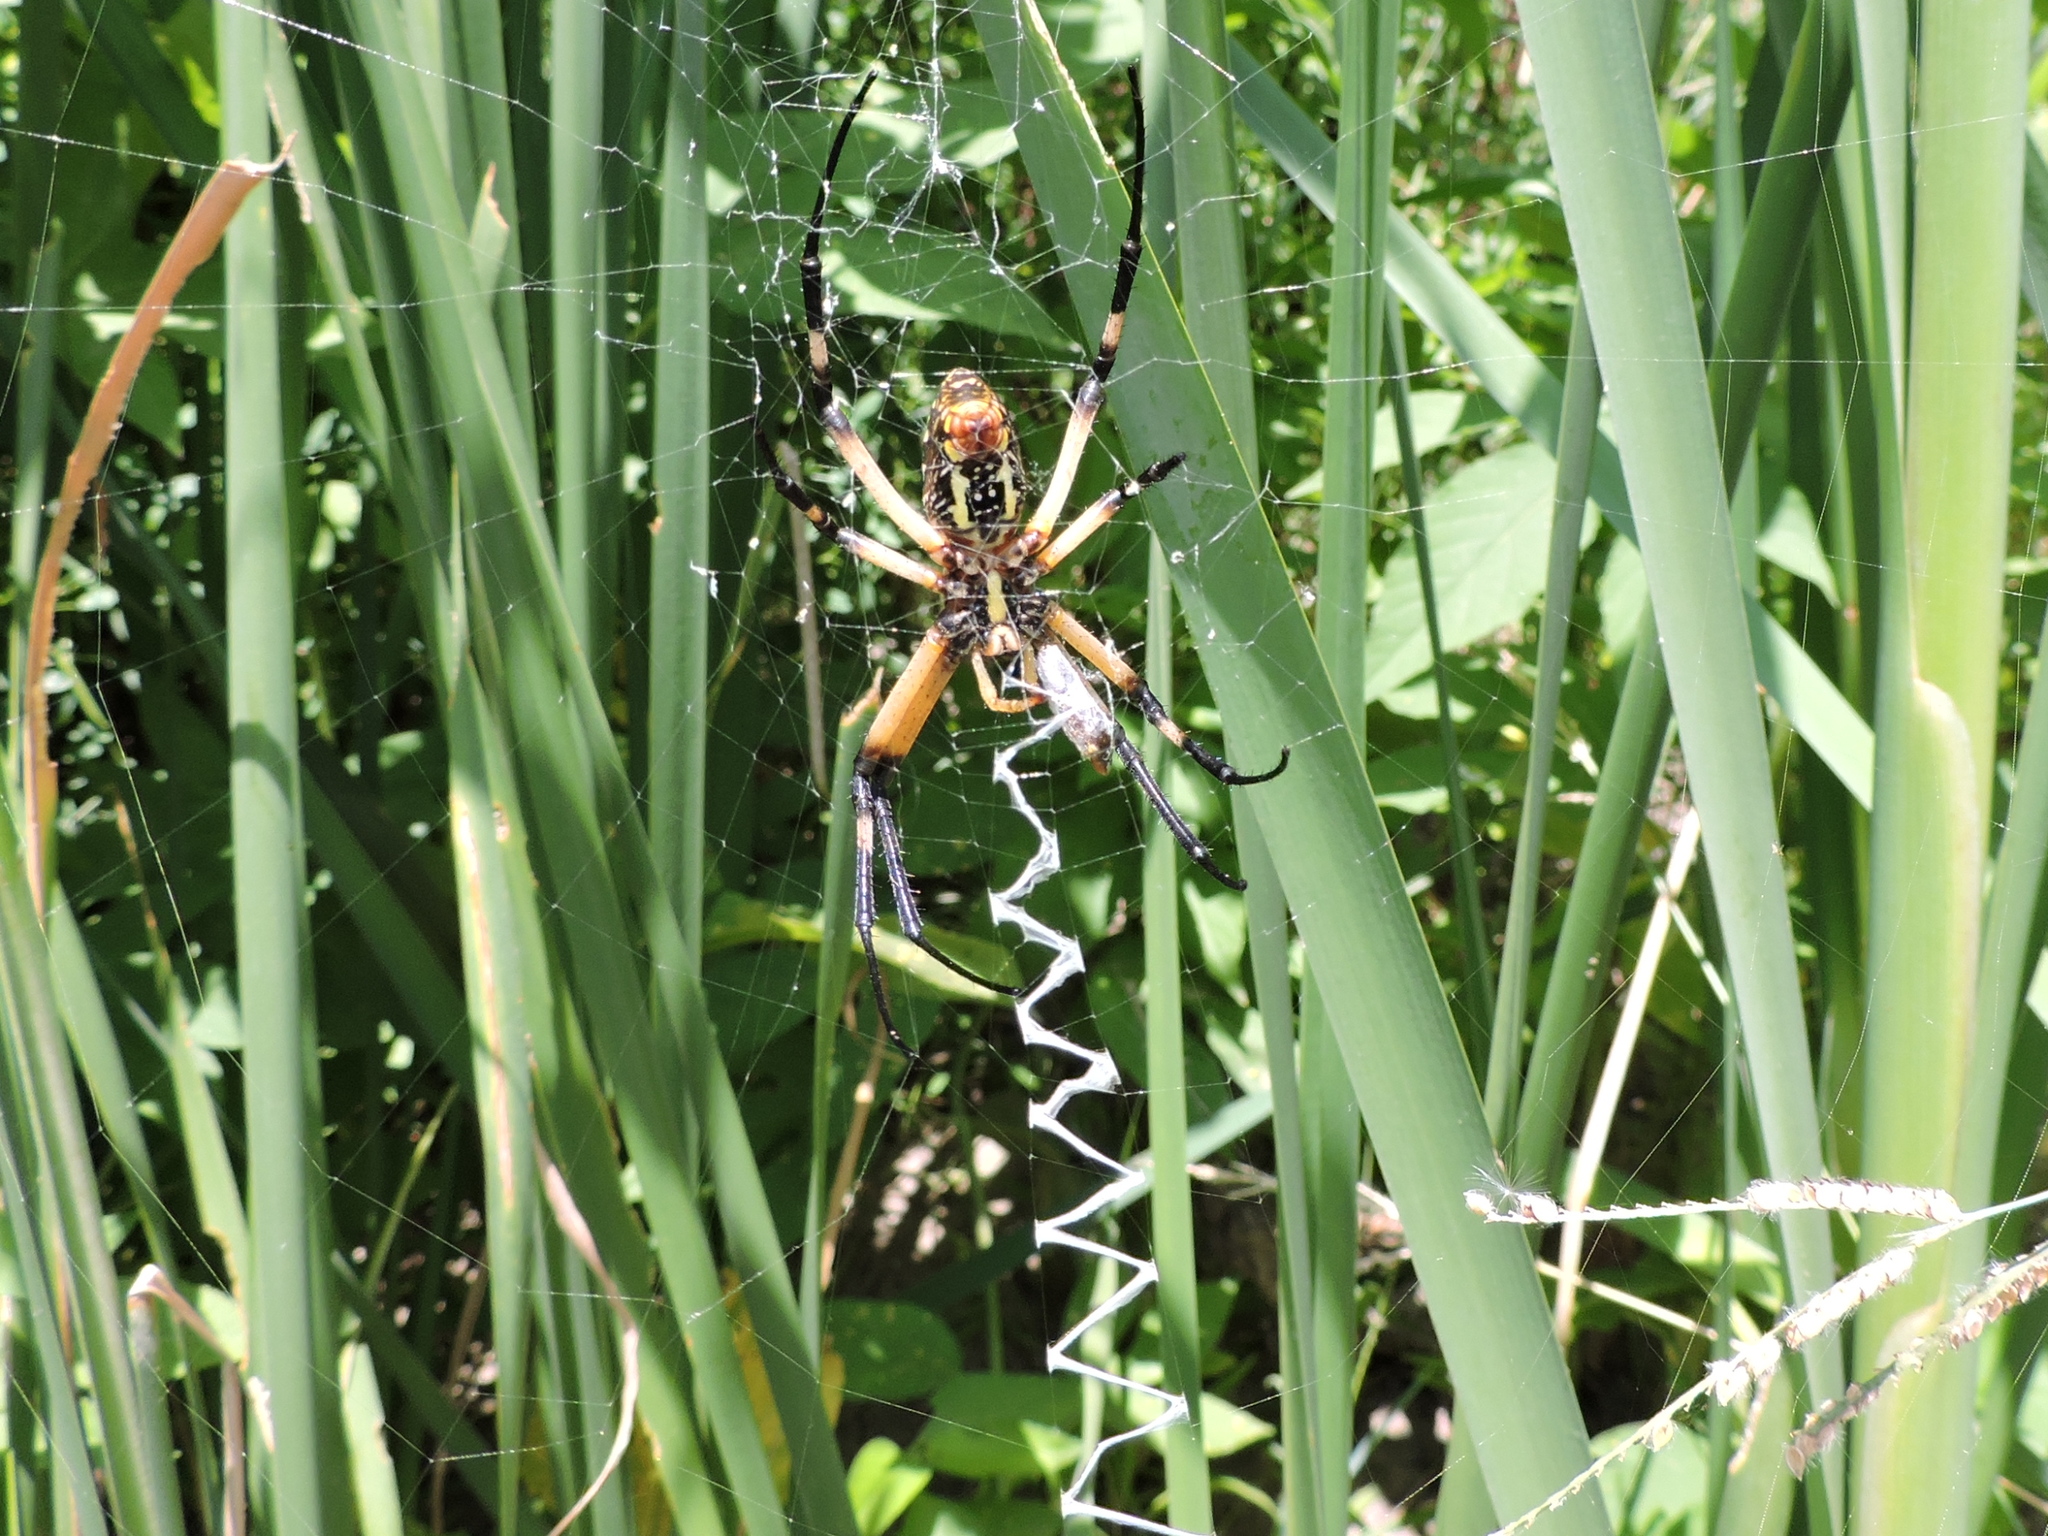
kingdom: Animalia
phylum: Arthropoda
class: Arachnida
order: Araneae
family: Araneidae
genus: Argiope
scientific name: Argiope aurantia
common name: Orb weavers
